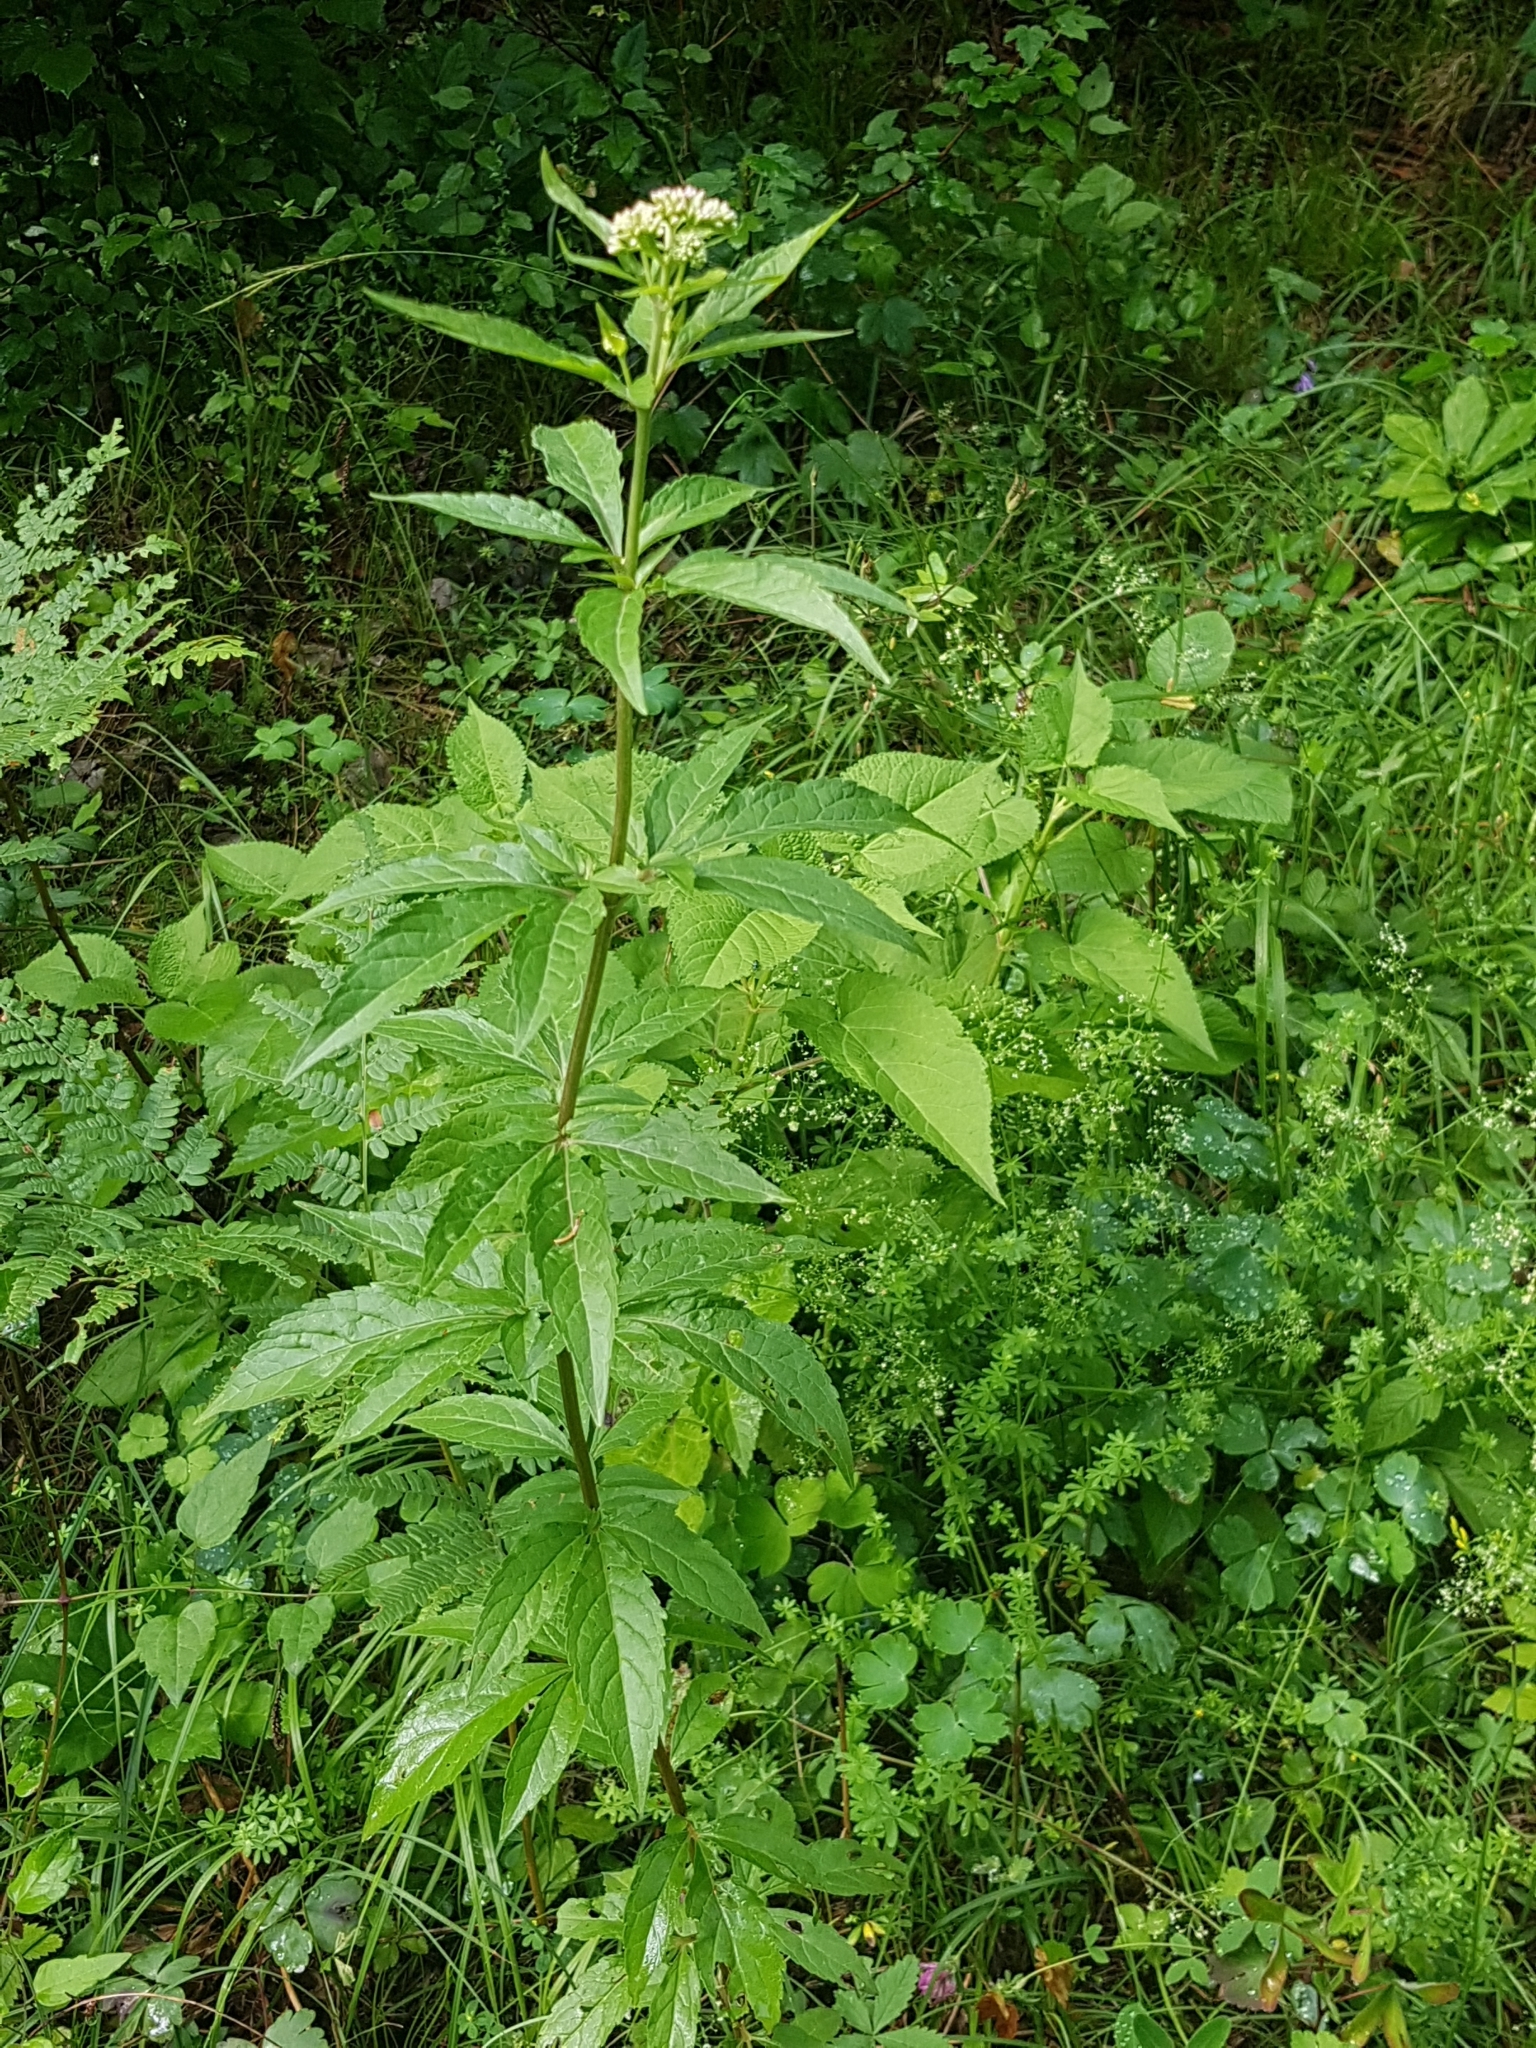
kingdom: Plantae
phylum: Tracheophyta
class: Magnoliopsida
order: Asterales
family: Asteraceae
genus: Eupatorium
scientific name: Eupatorium cannabinum
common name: Hemp-agrimony
